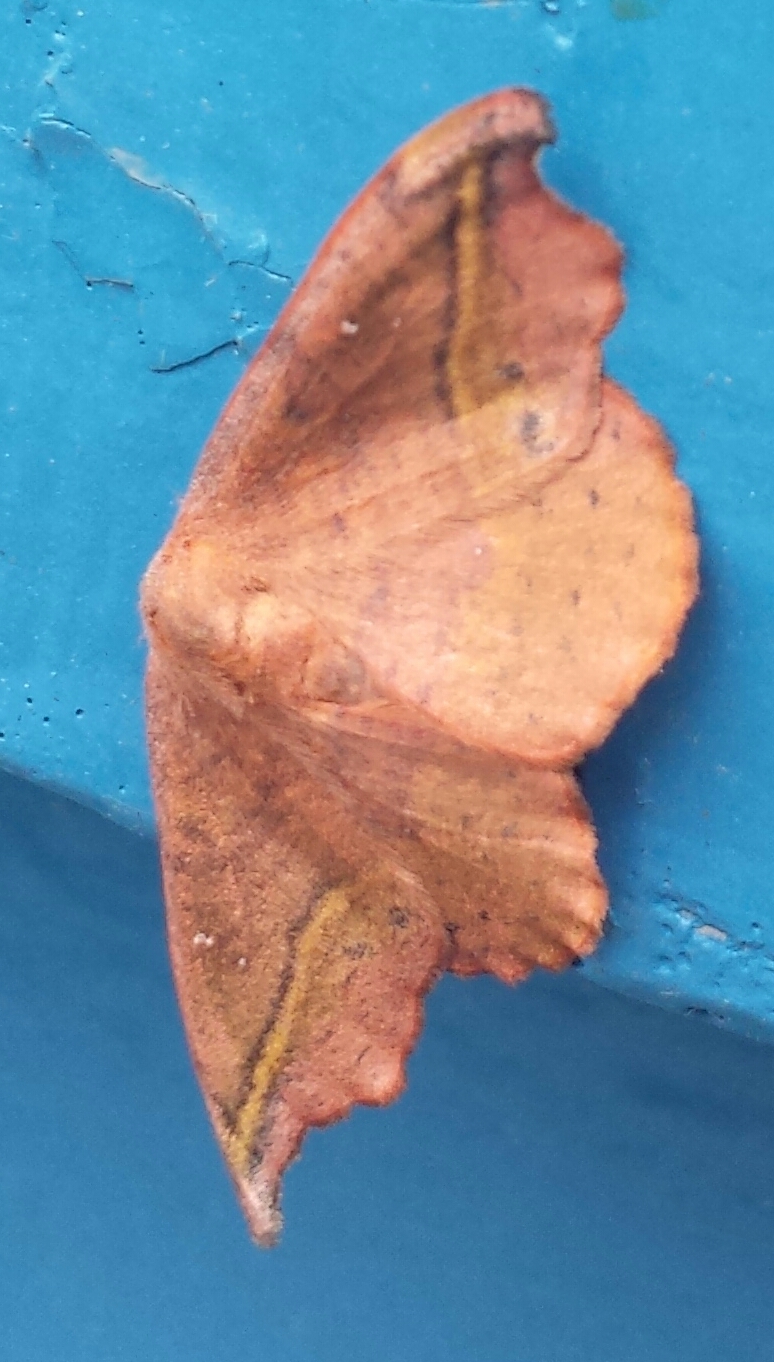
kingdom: Animalia
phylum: Arthropoda
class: Insecta
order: Lepidoptera
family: Drepanidae
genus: Oreta
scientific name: Oreta rosea
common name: Rose hooktip
